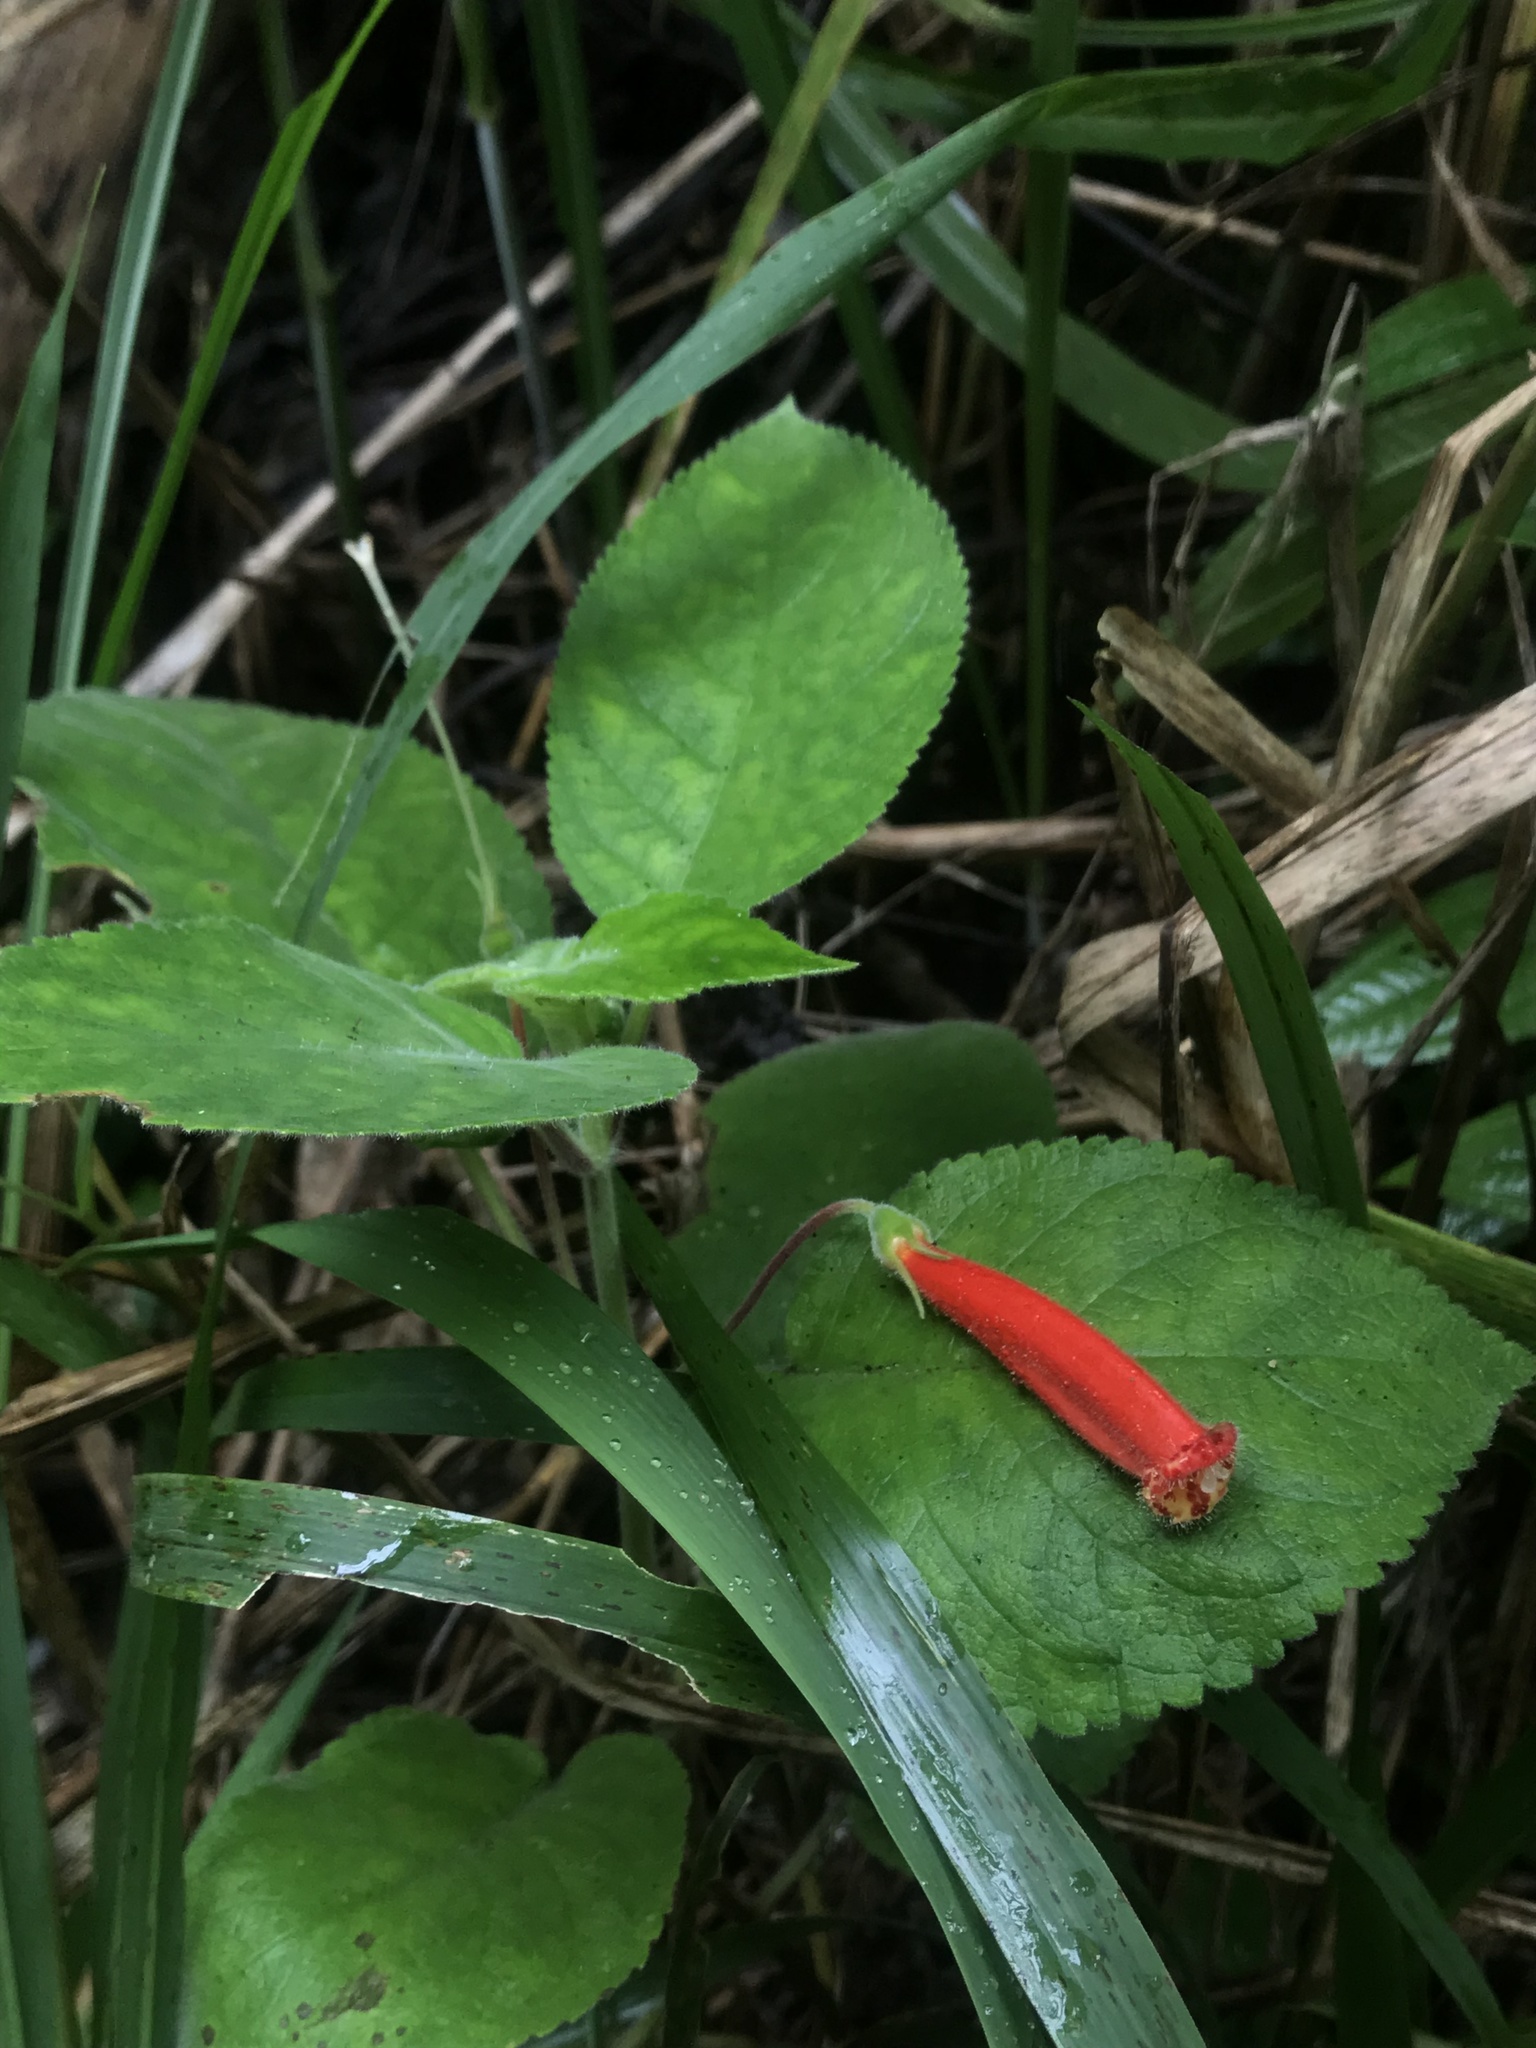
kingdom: Plantae
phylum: Tracheophyta
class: Magnoliopsida
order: Lamiales
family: Gesneriaceae
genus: Kohleria
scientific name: Kohleria hirsuta
